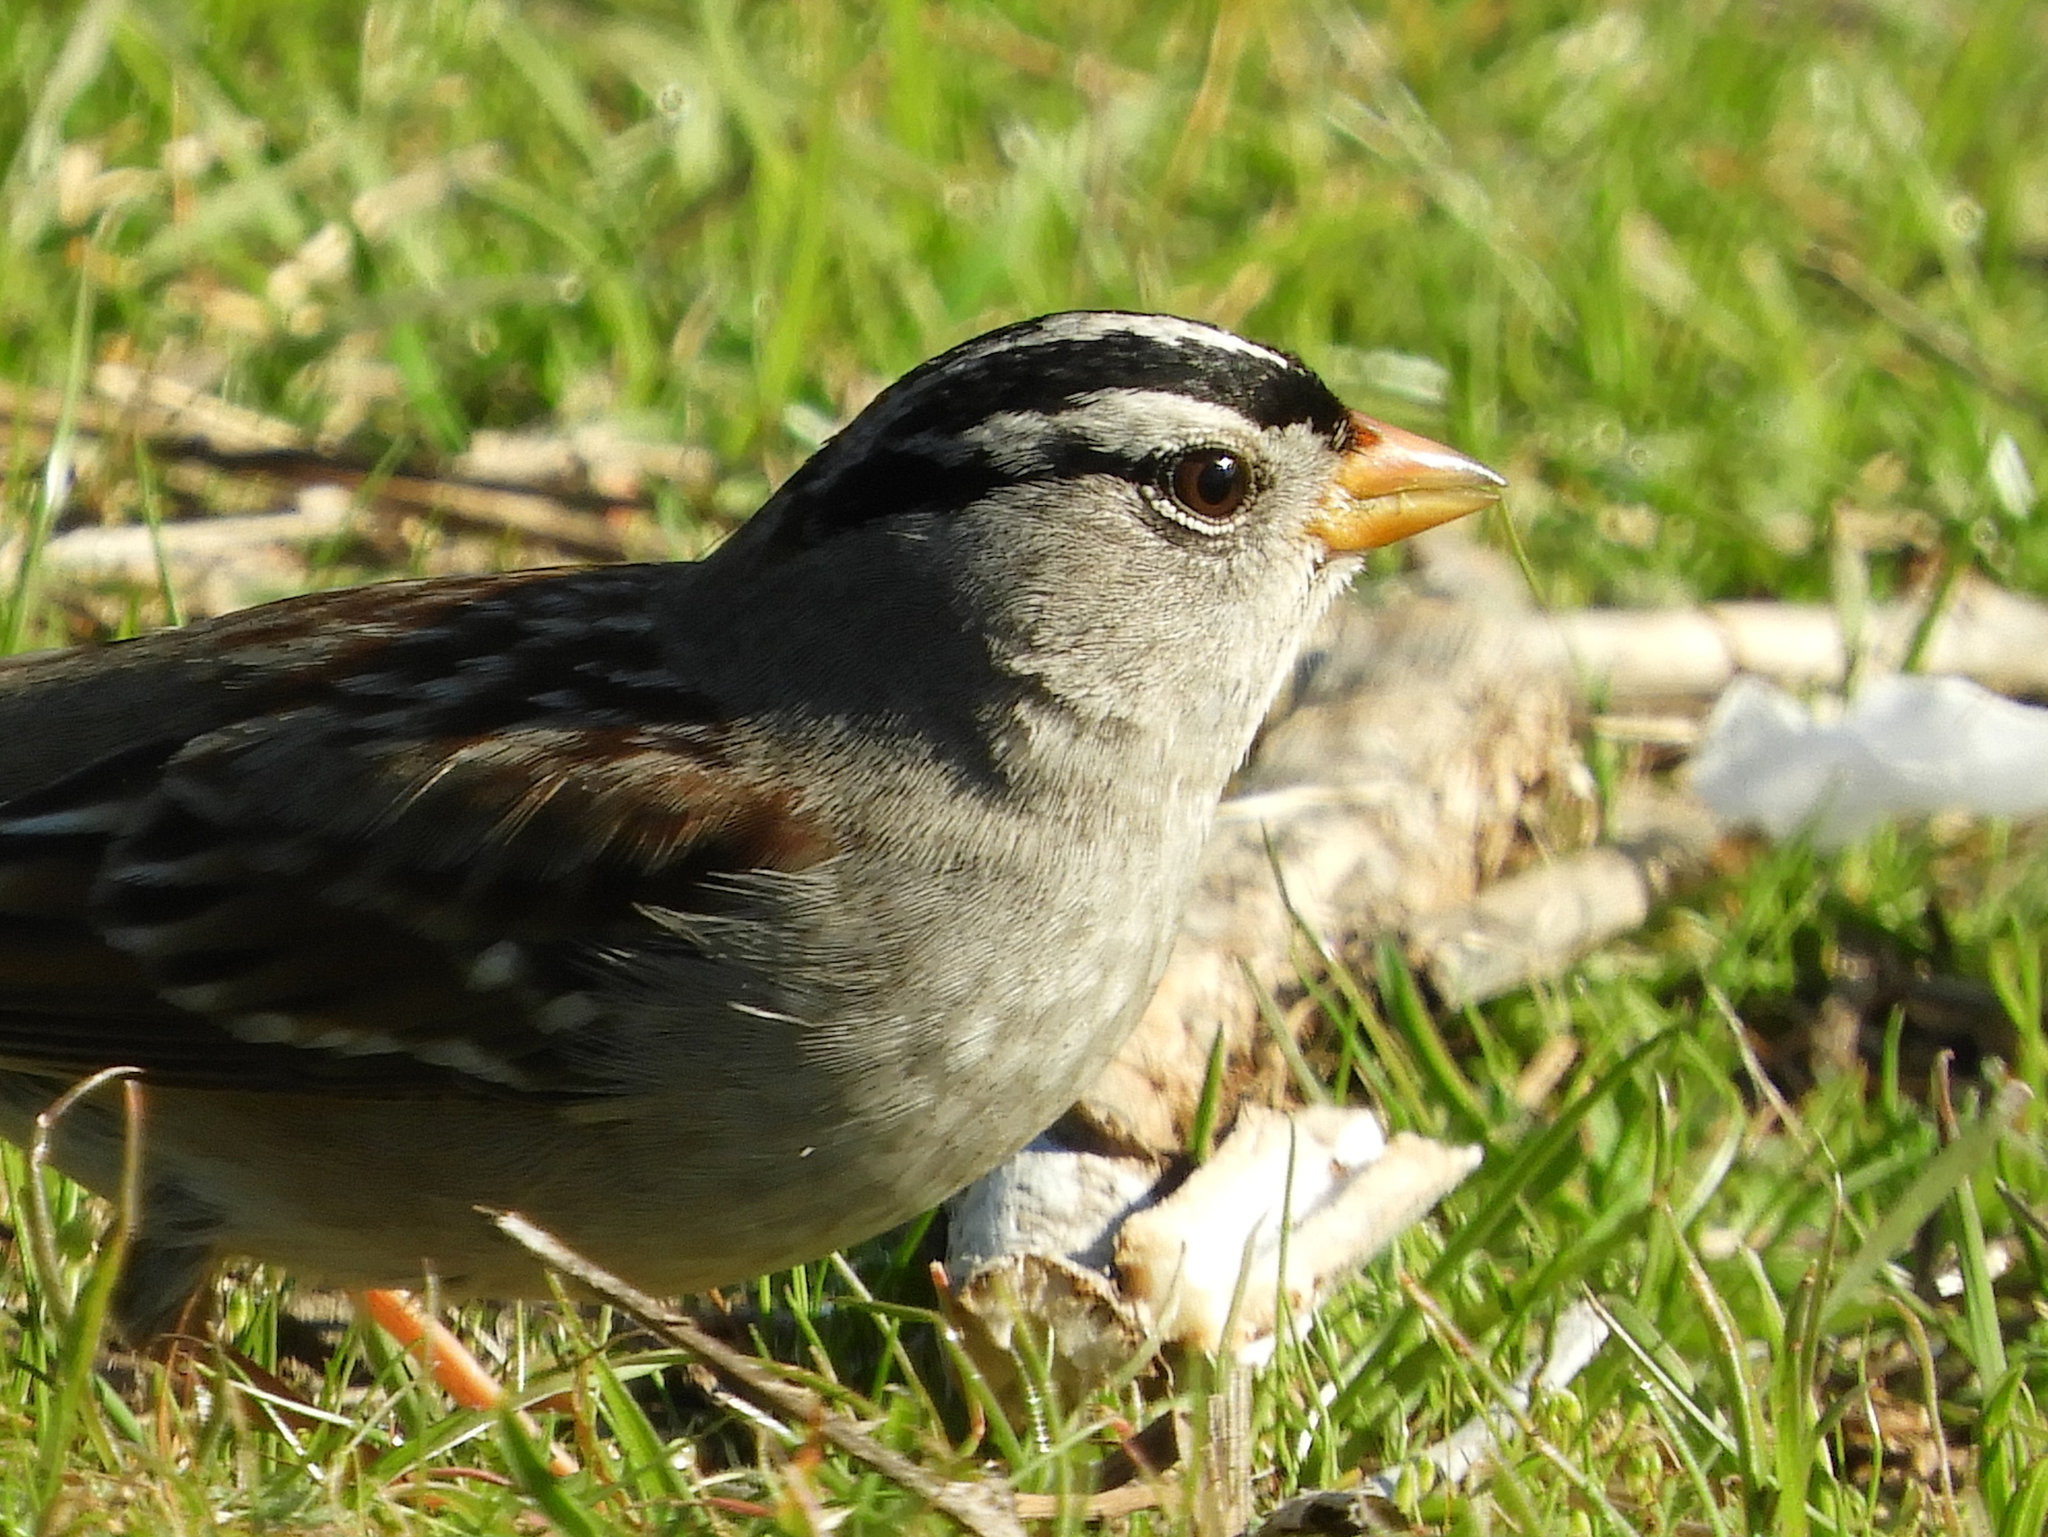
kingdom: Animalia
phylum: Chordata
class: Aves
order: Passeriformes
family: Passerellidae
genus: Zonotrichia
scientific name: Zonotrichia leucophrys
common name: White-crowned sparrow
